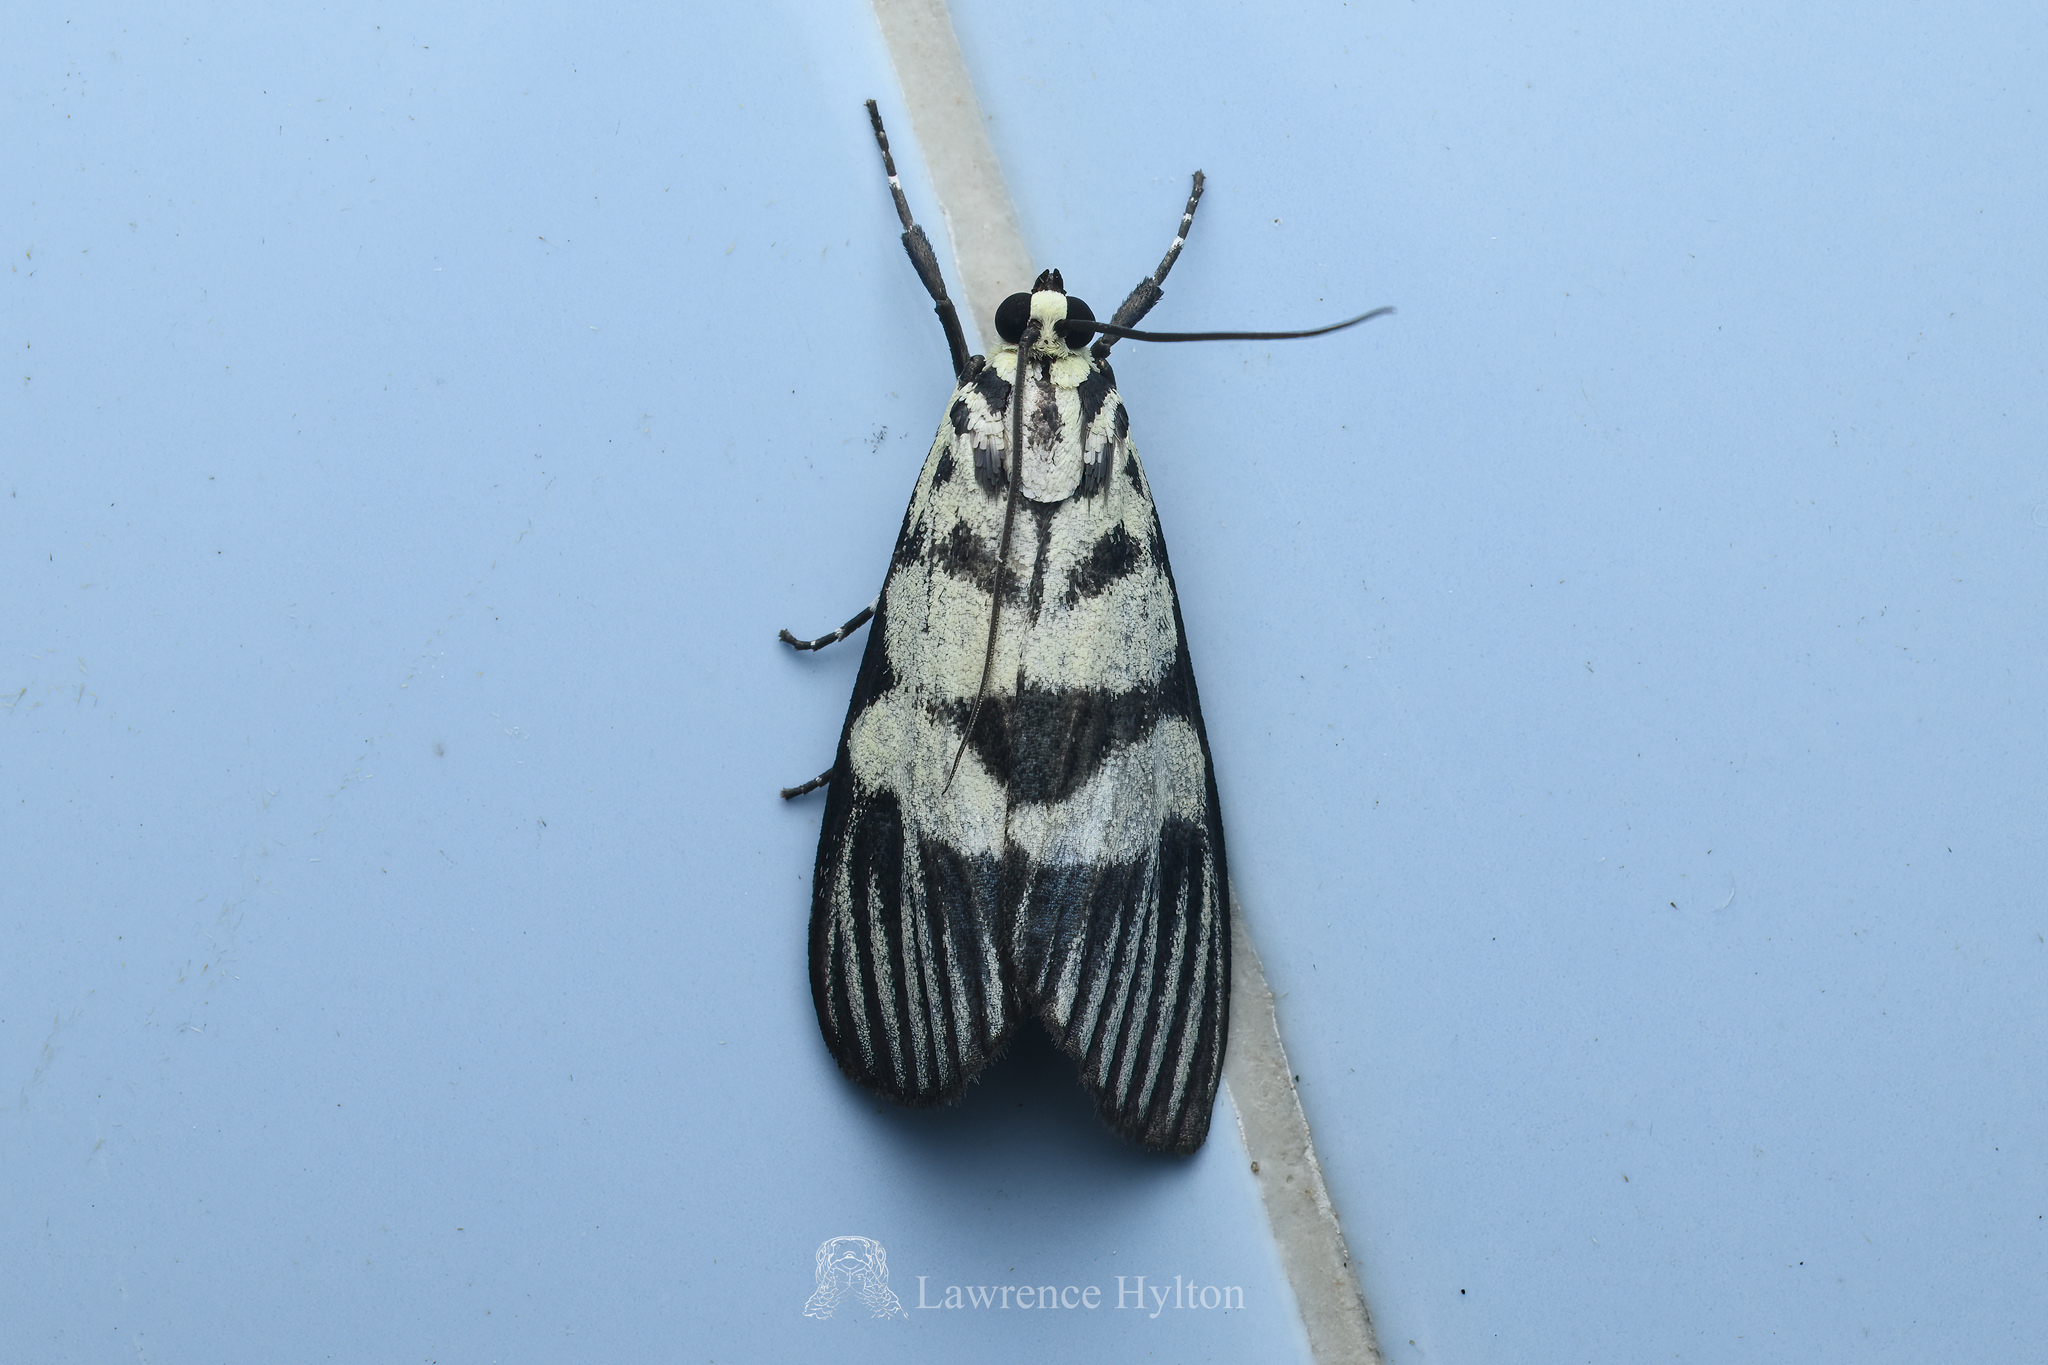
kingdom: Animalia
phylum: Arthropoda
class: Insecta
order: Lepidoptera
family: Crambidae
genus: Heortia
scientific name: Heortia vitessoides
